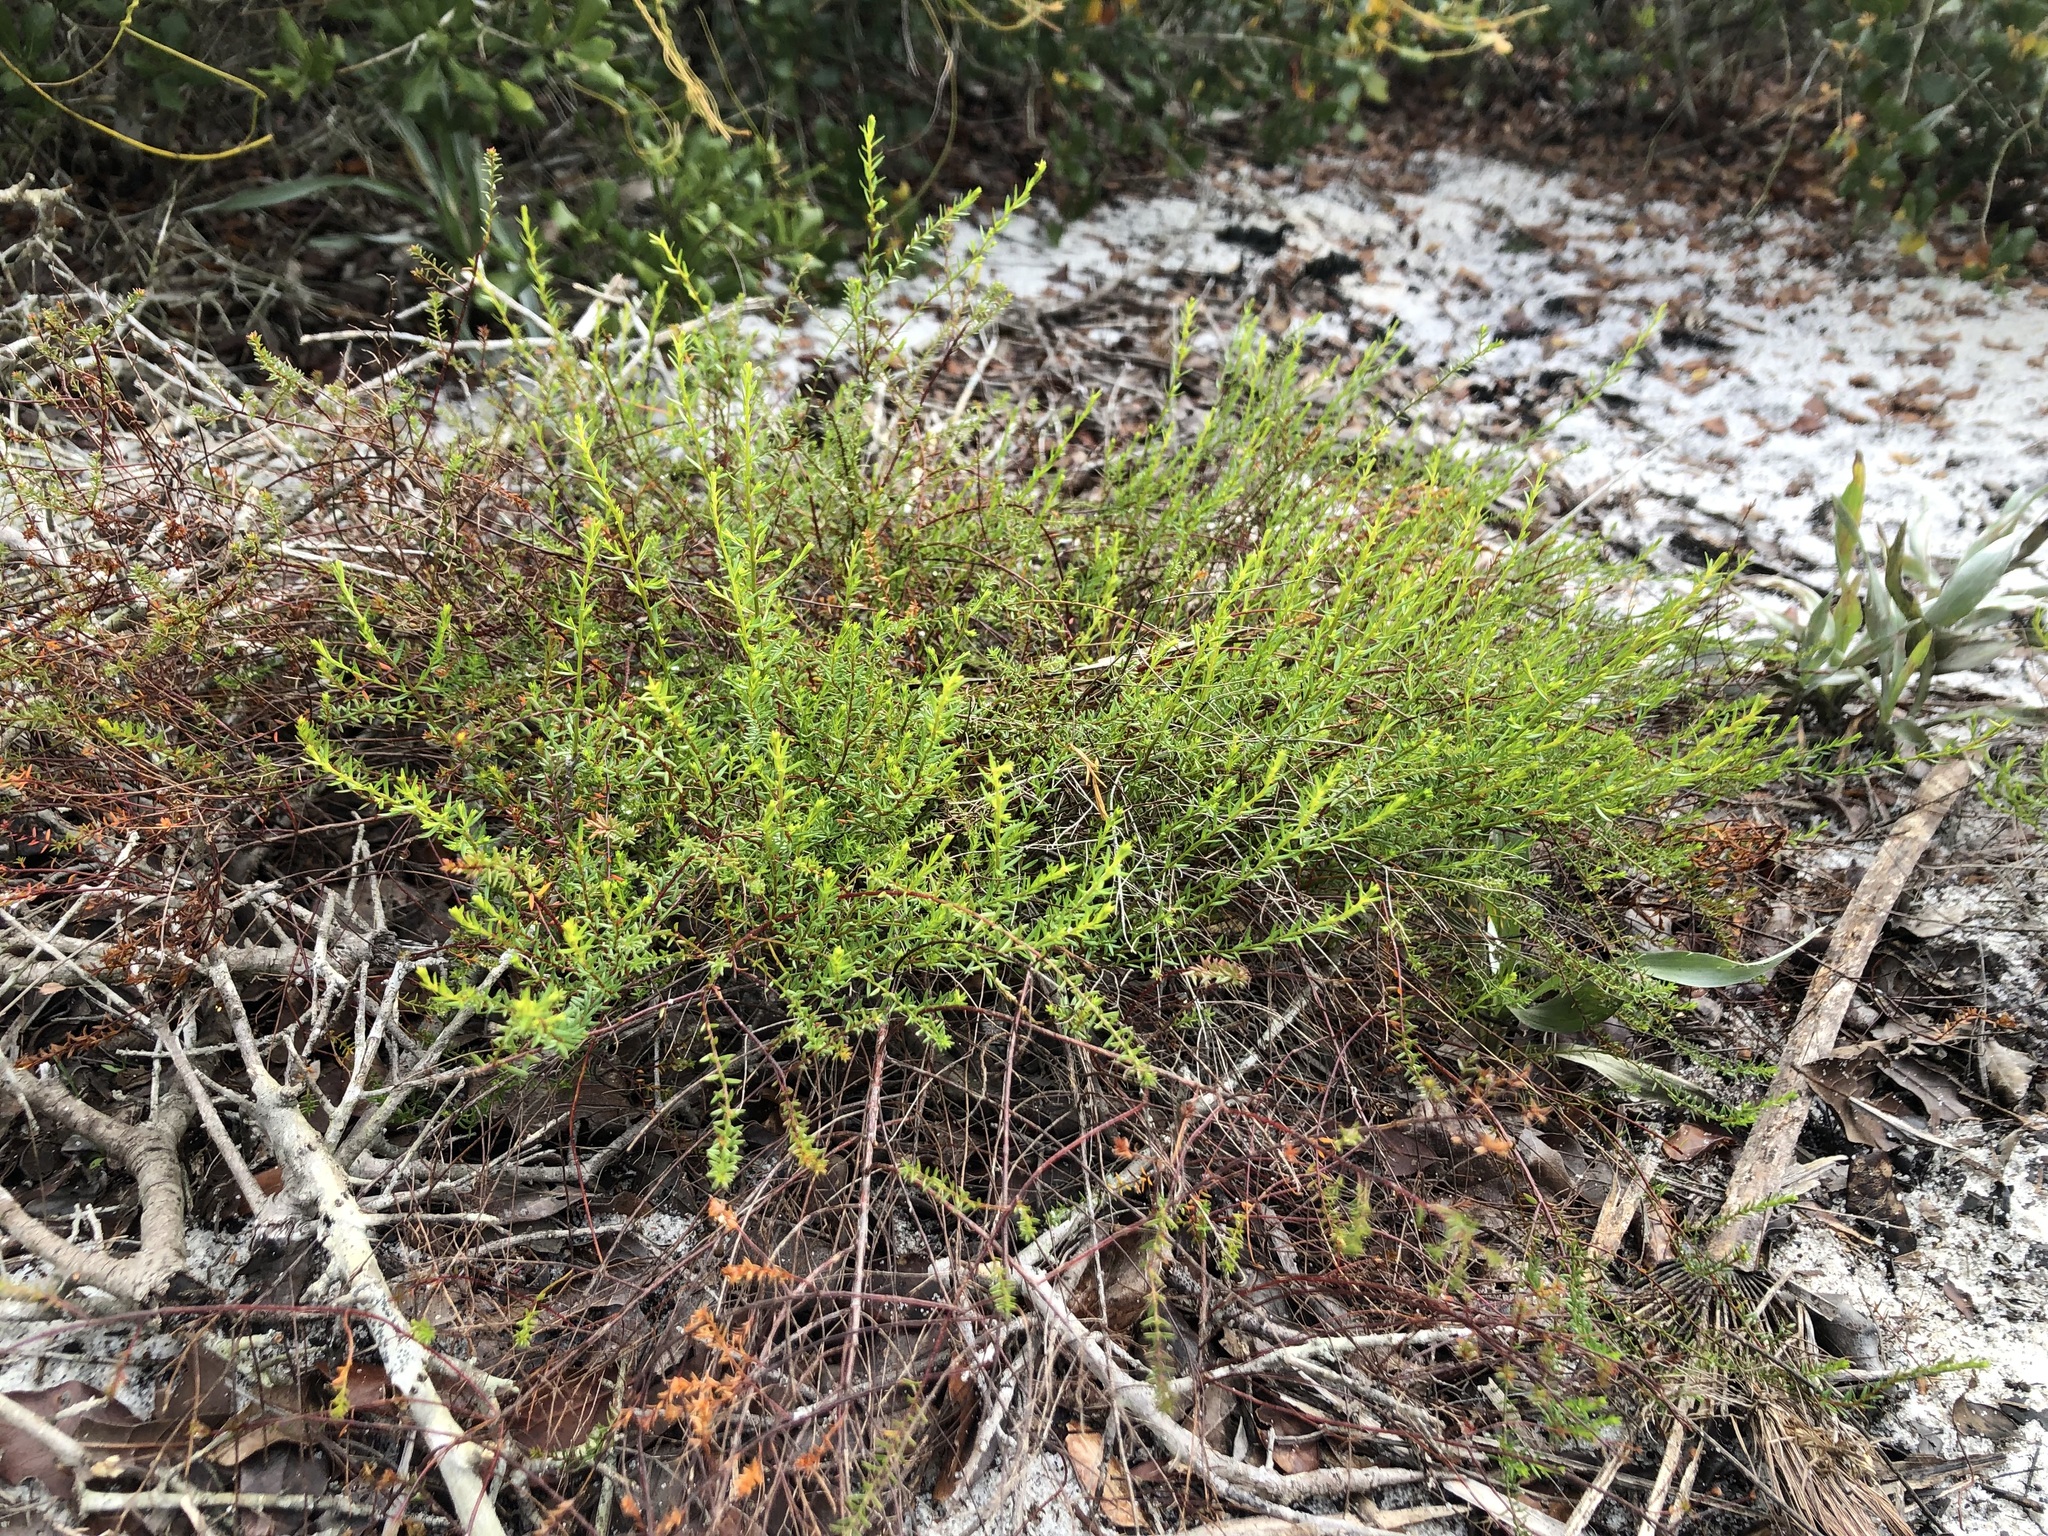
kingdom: Plantae
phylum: Tracheophyta
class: Magnoliopsida
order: Malvales
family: Cistaceae
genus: Lechea
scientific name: Lechea deckertii
